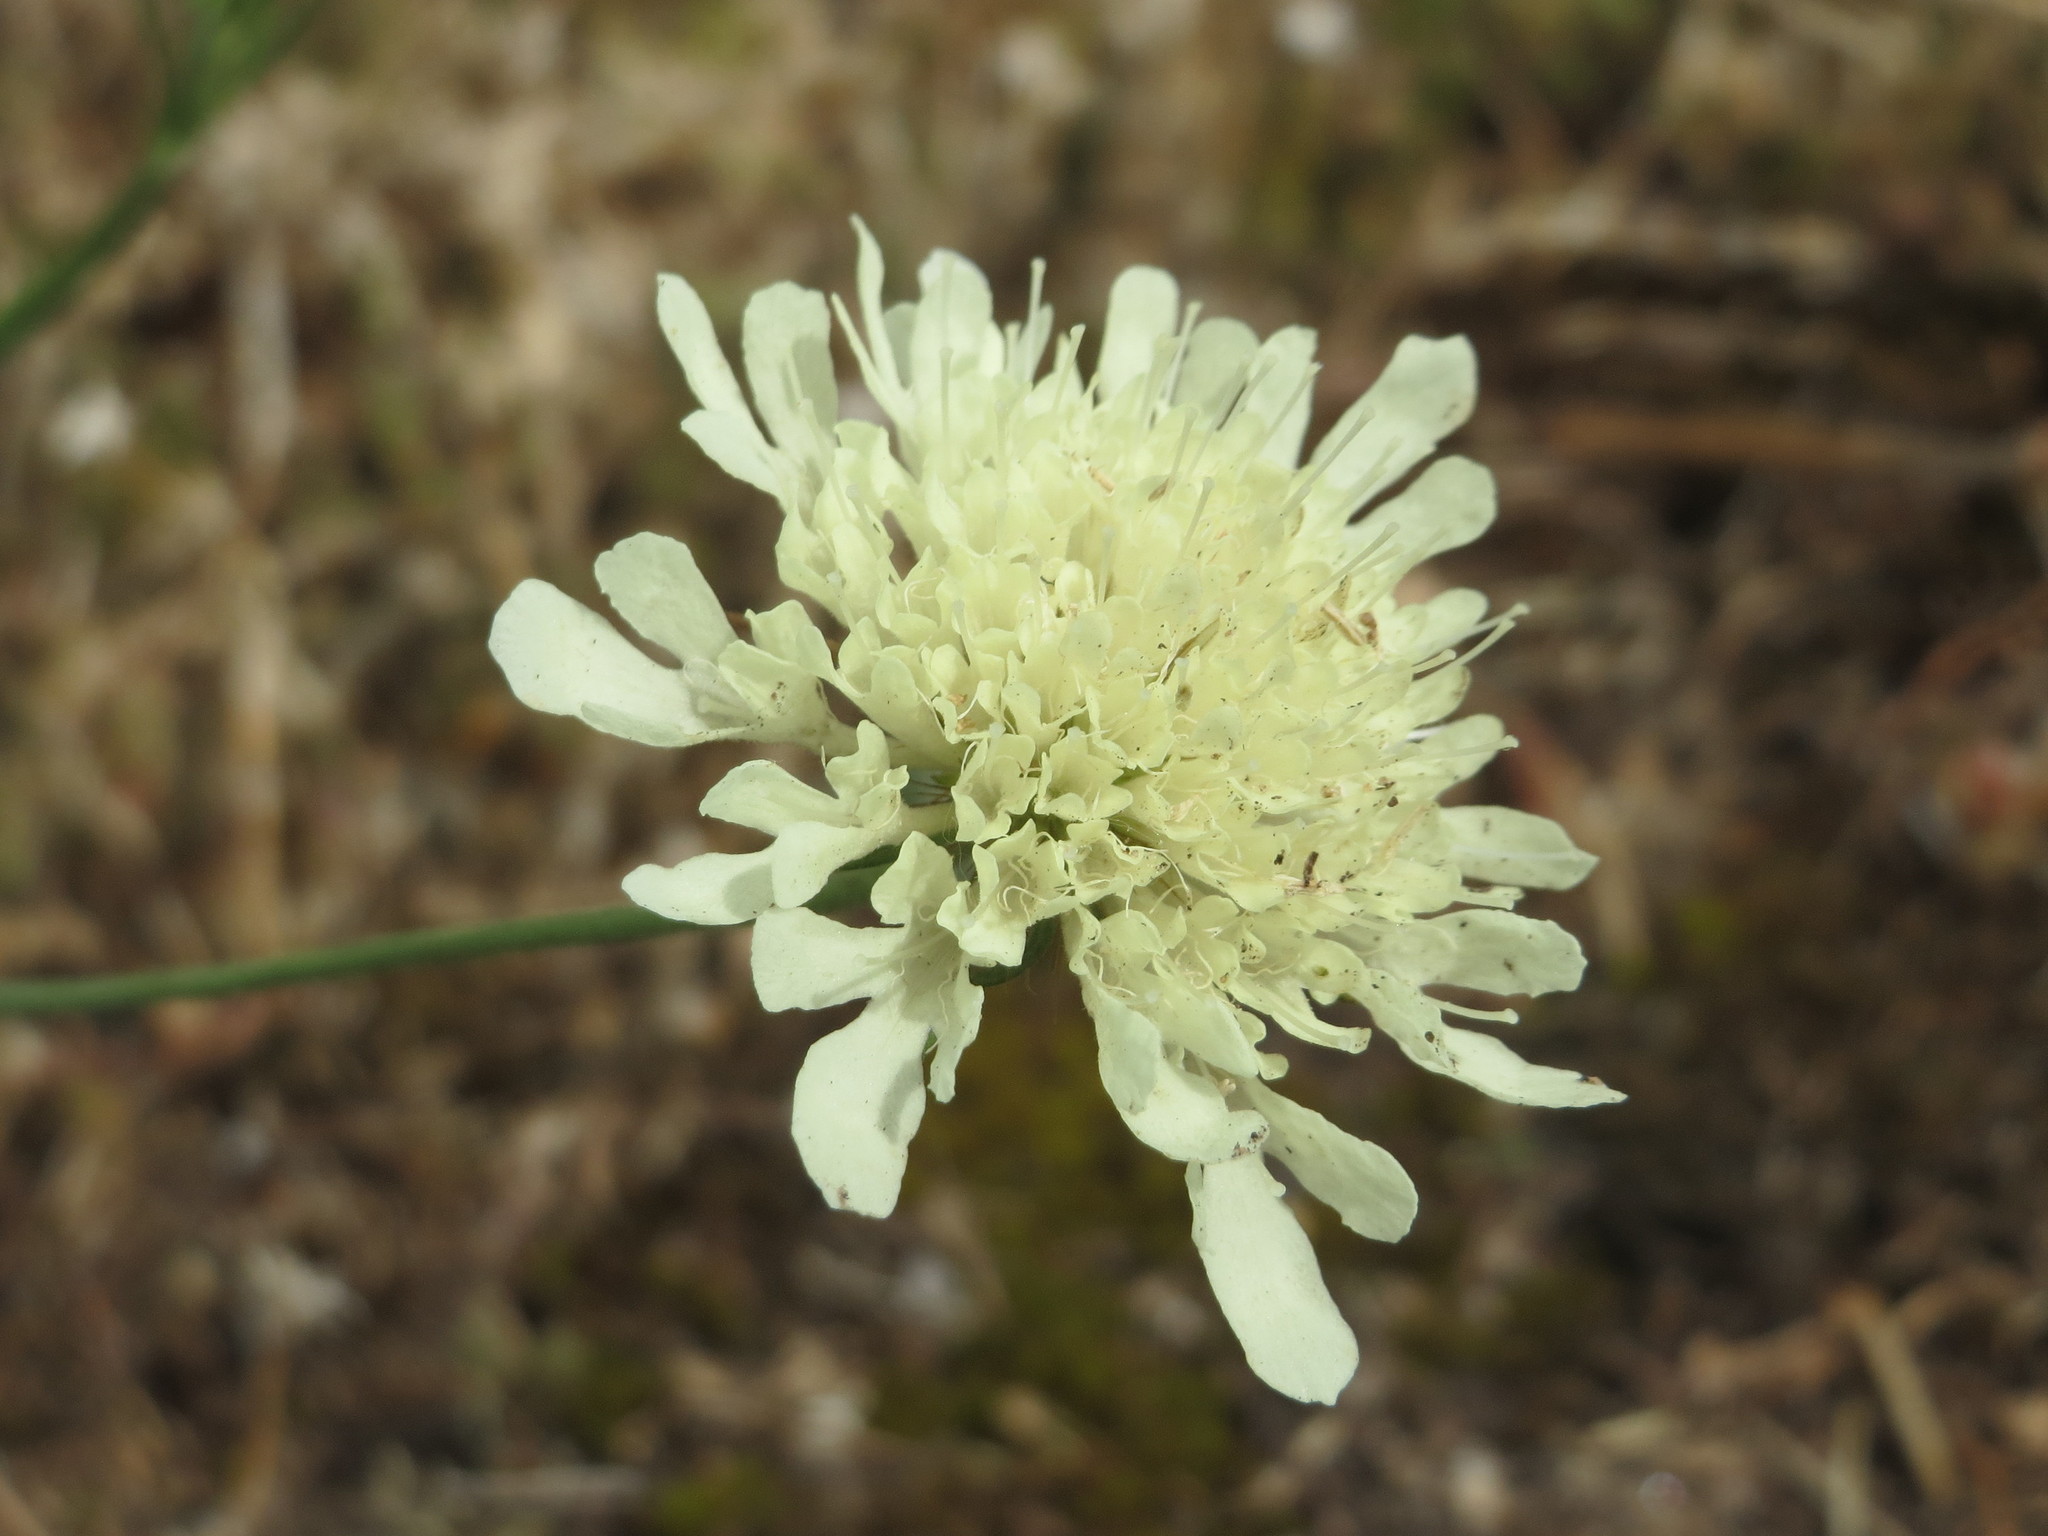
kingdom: Plantae
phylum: Tracheophyta
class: Magnoliopsida
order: Dipsacales
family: Caprifoliaceae
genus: Scabiosa
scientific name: Scabiosa ochroleuca
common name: Cream pincushions
